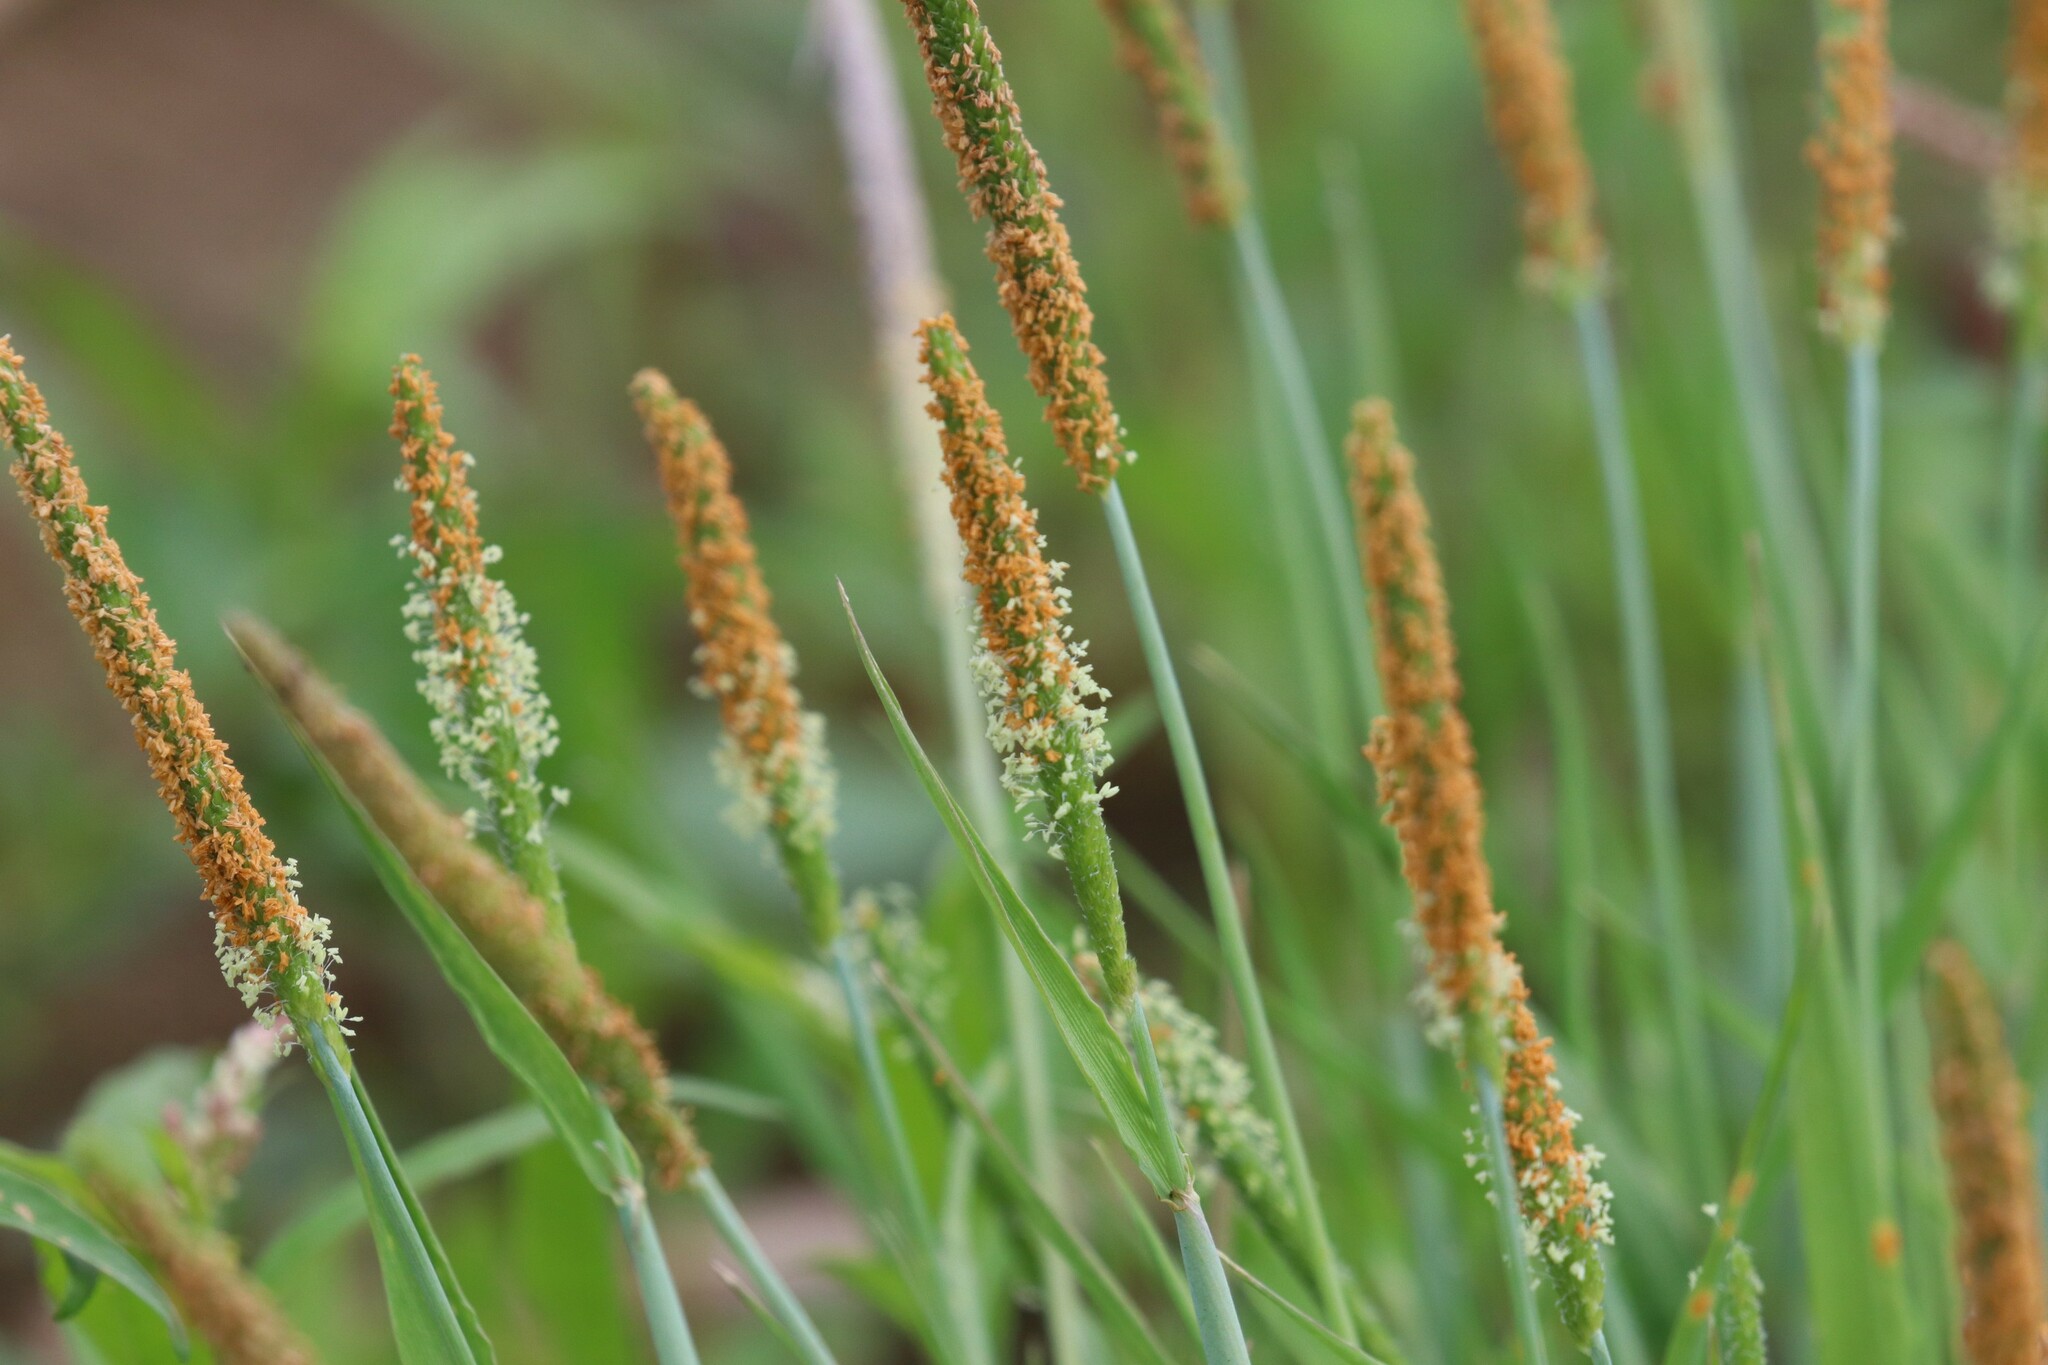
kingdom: Plantae
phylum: Tracheophyta
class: Liliopsida
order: Poales
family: Poaceae
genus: Alopecurus
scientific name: Alopecurus aequalis
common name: Orange foxtail
